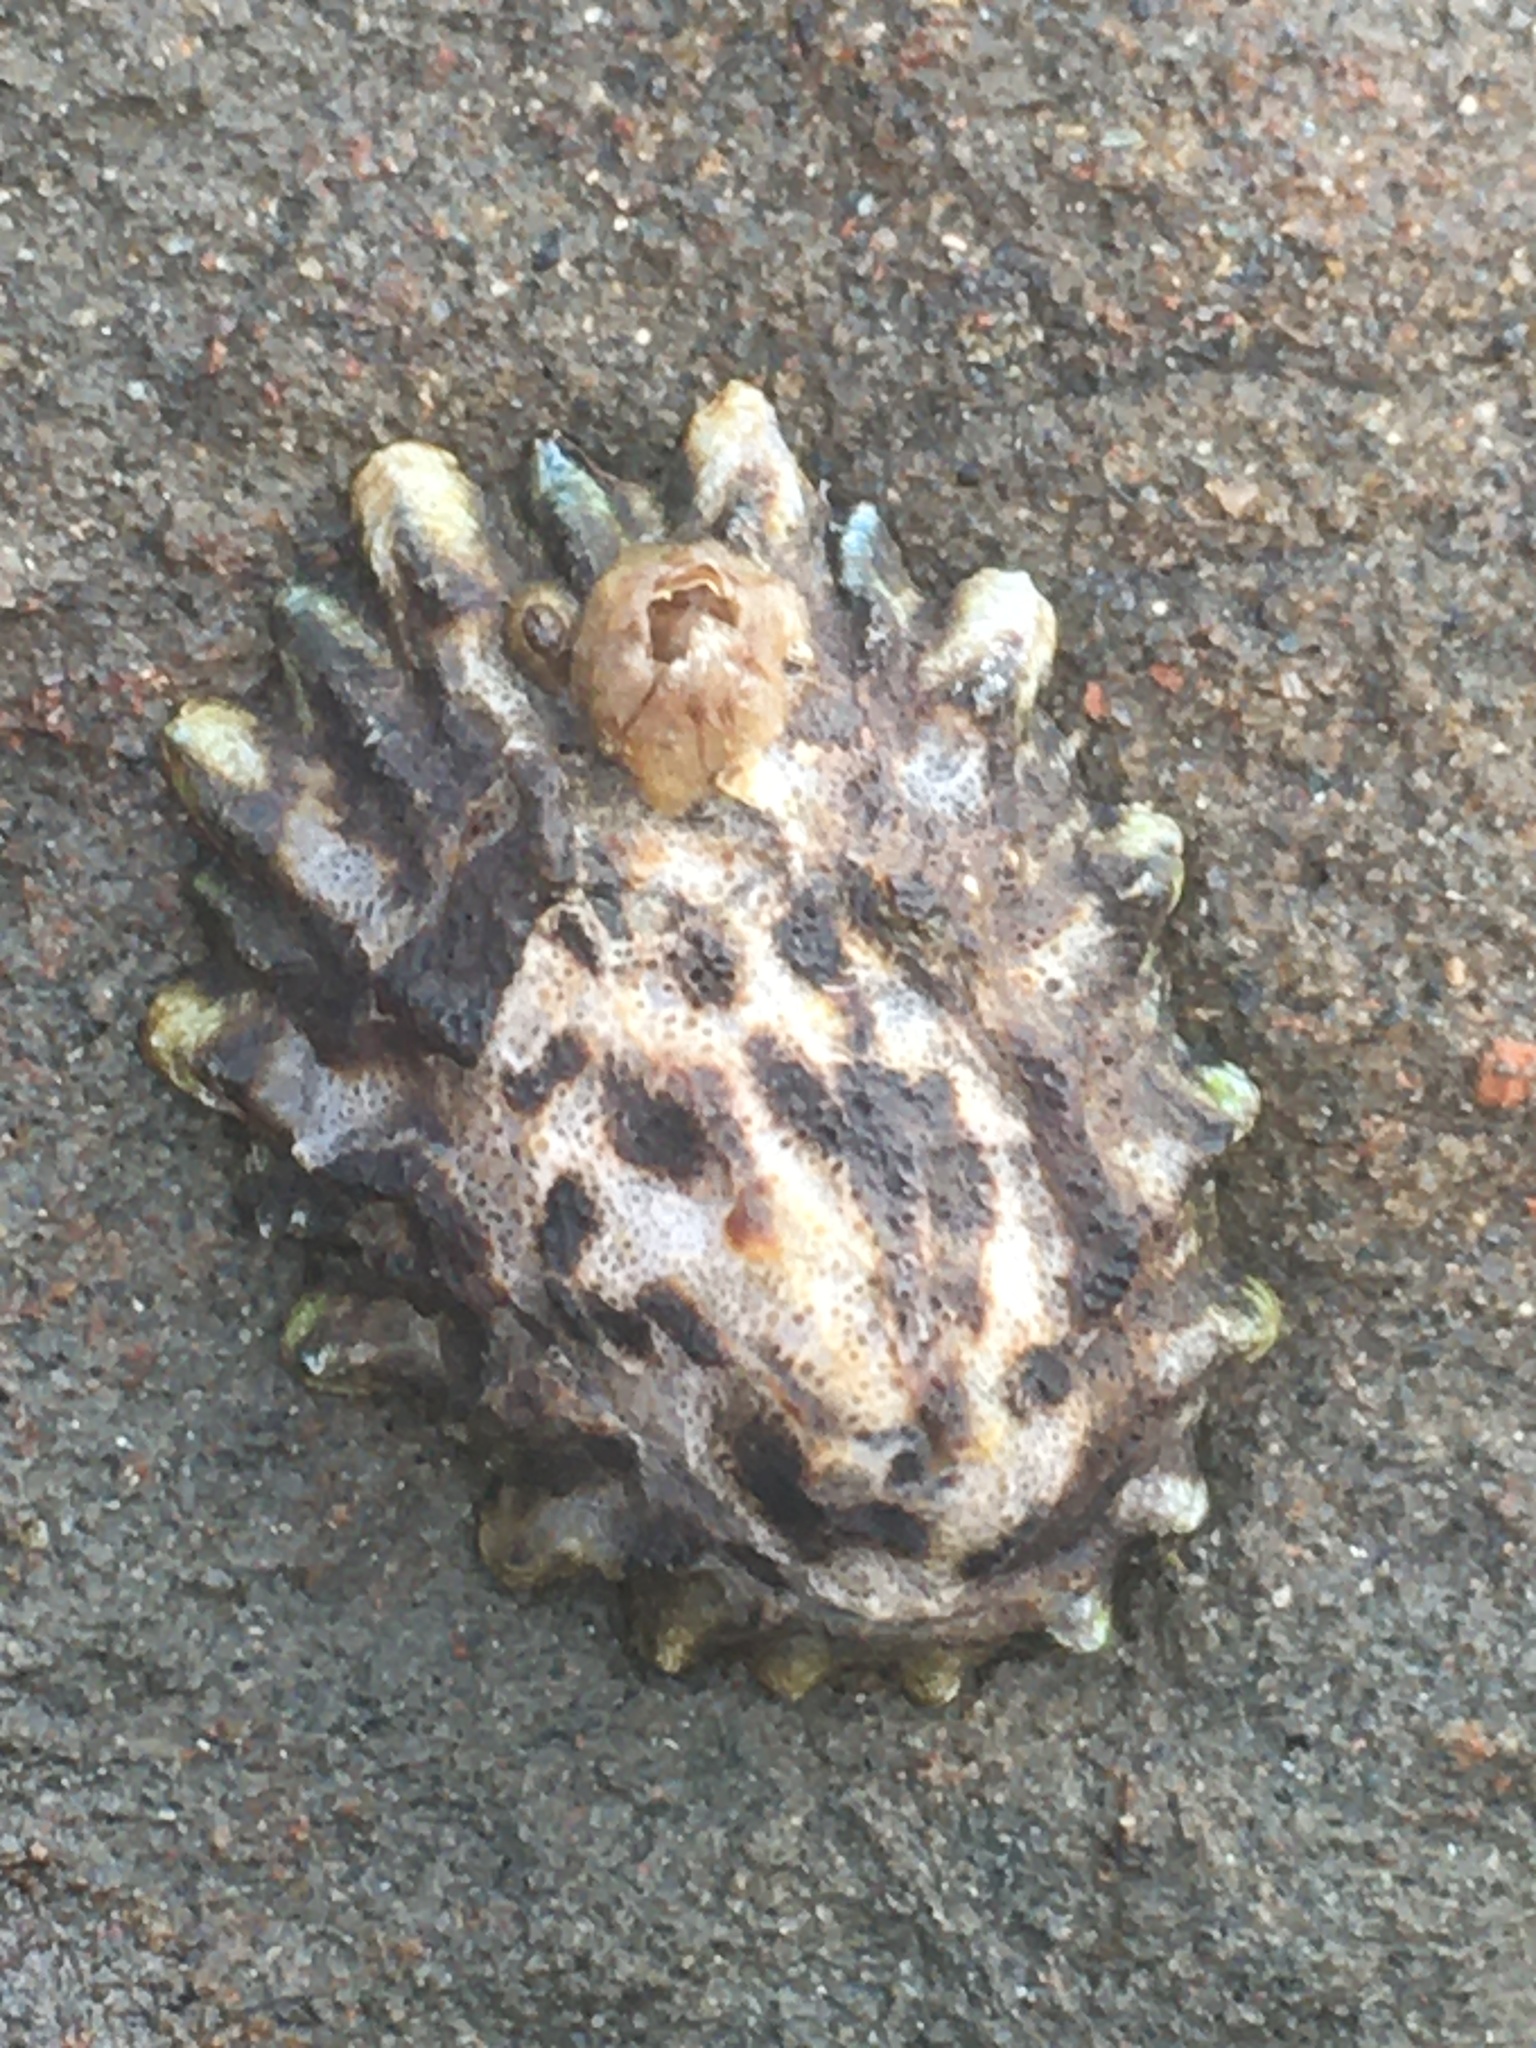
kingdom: Animalia
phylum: Mollusca
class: Gastropoda
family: Lottiidae
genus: Lottia
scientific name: Lottia scabra
